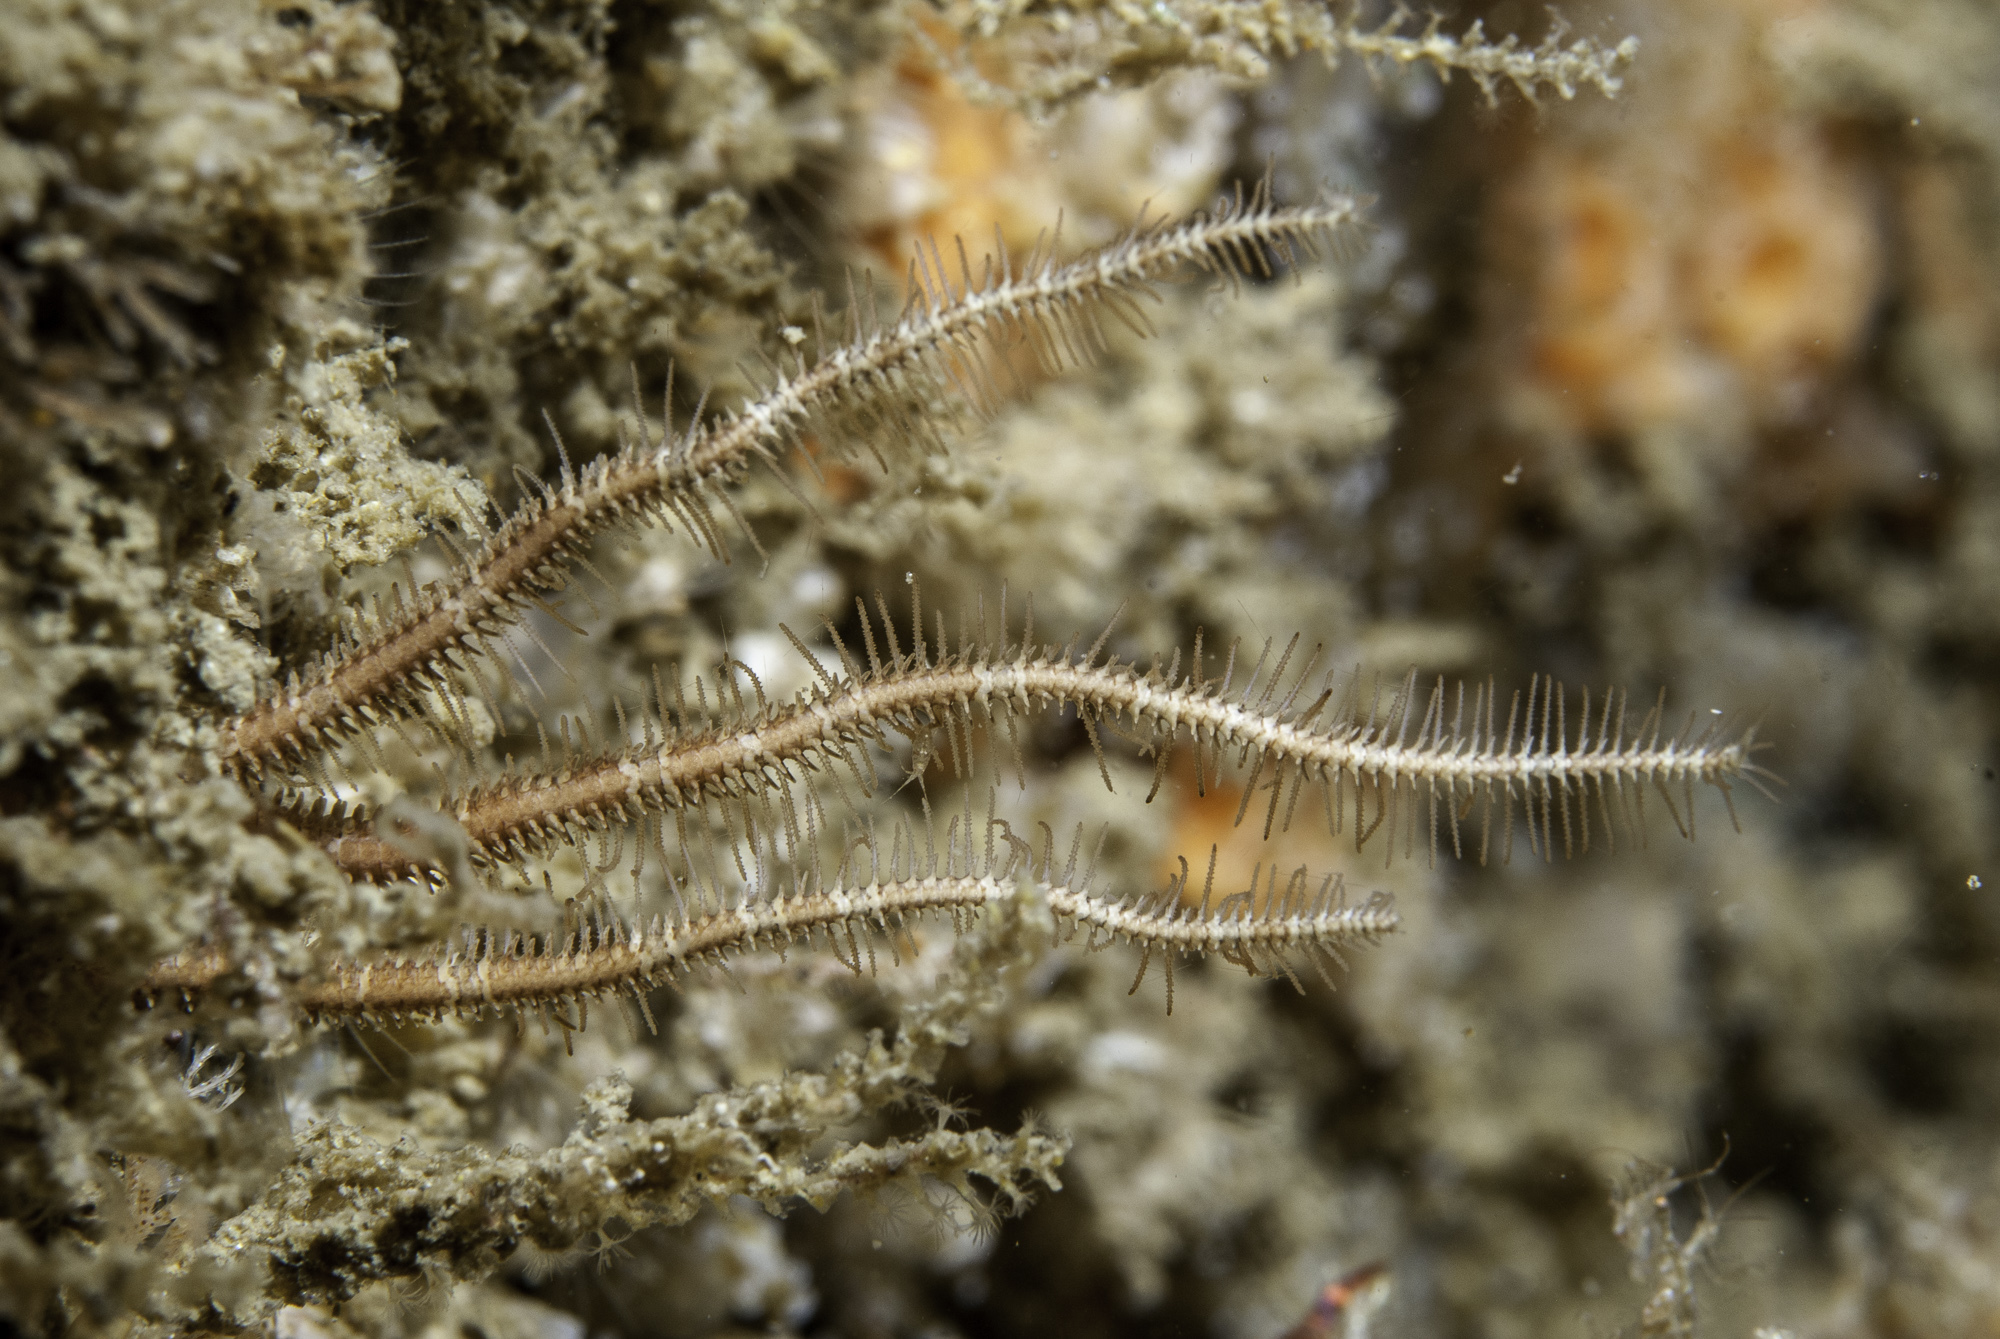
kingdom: Animalia
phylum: Echinodermata
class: Ophiuroidea
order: Amphilepidida
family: Ophiopsilidae
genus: Ophiopsila
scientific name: Ophiopsila aranea
